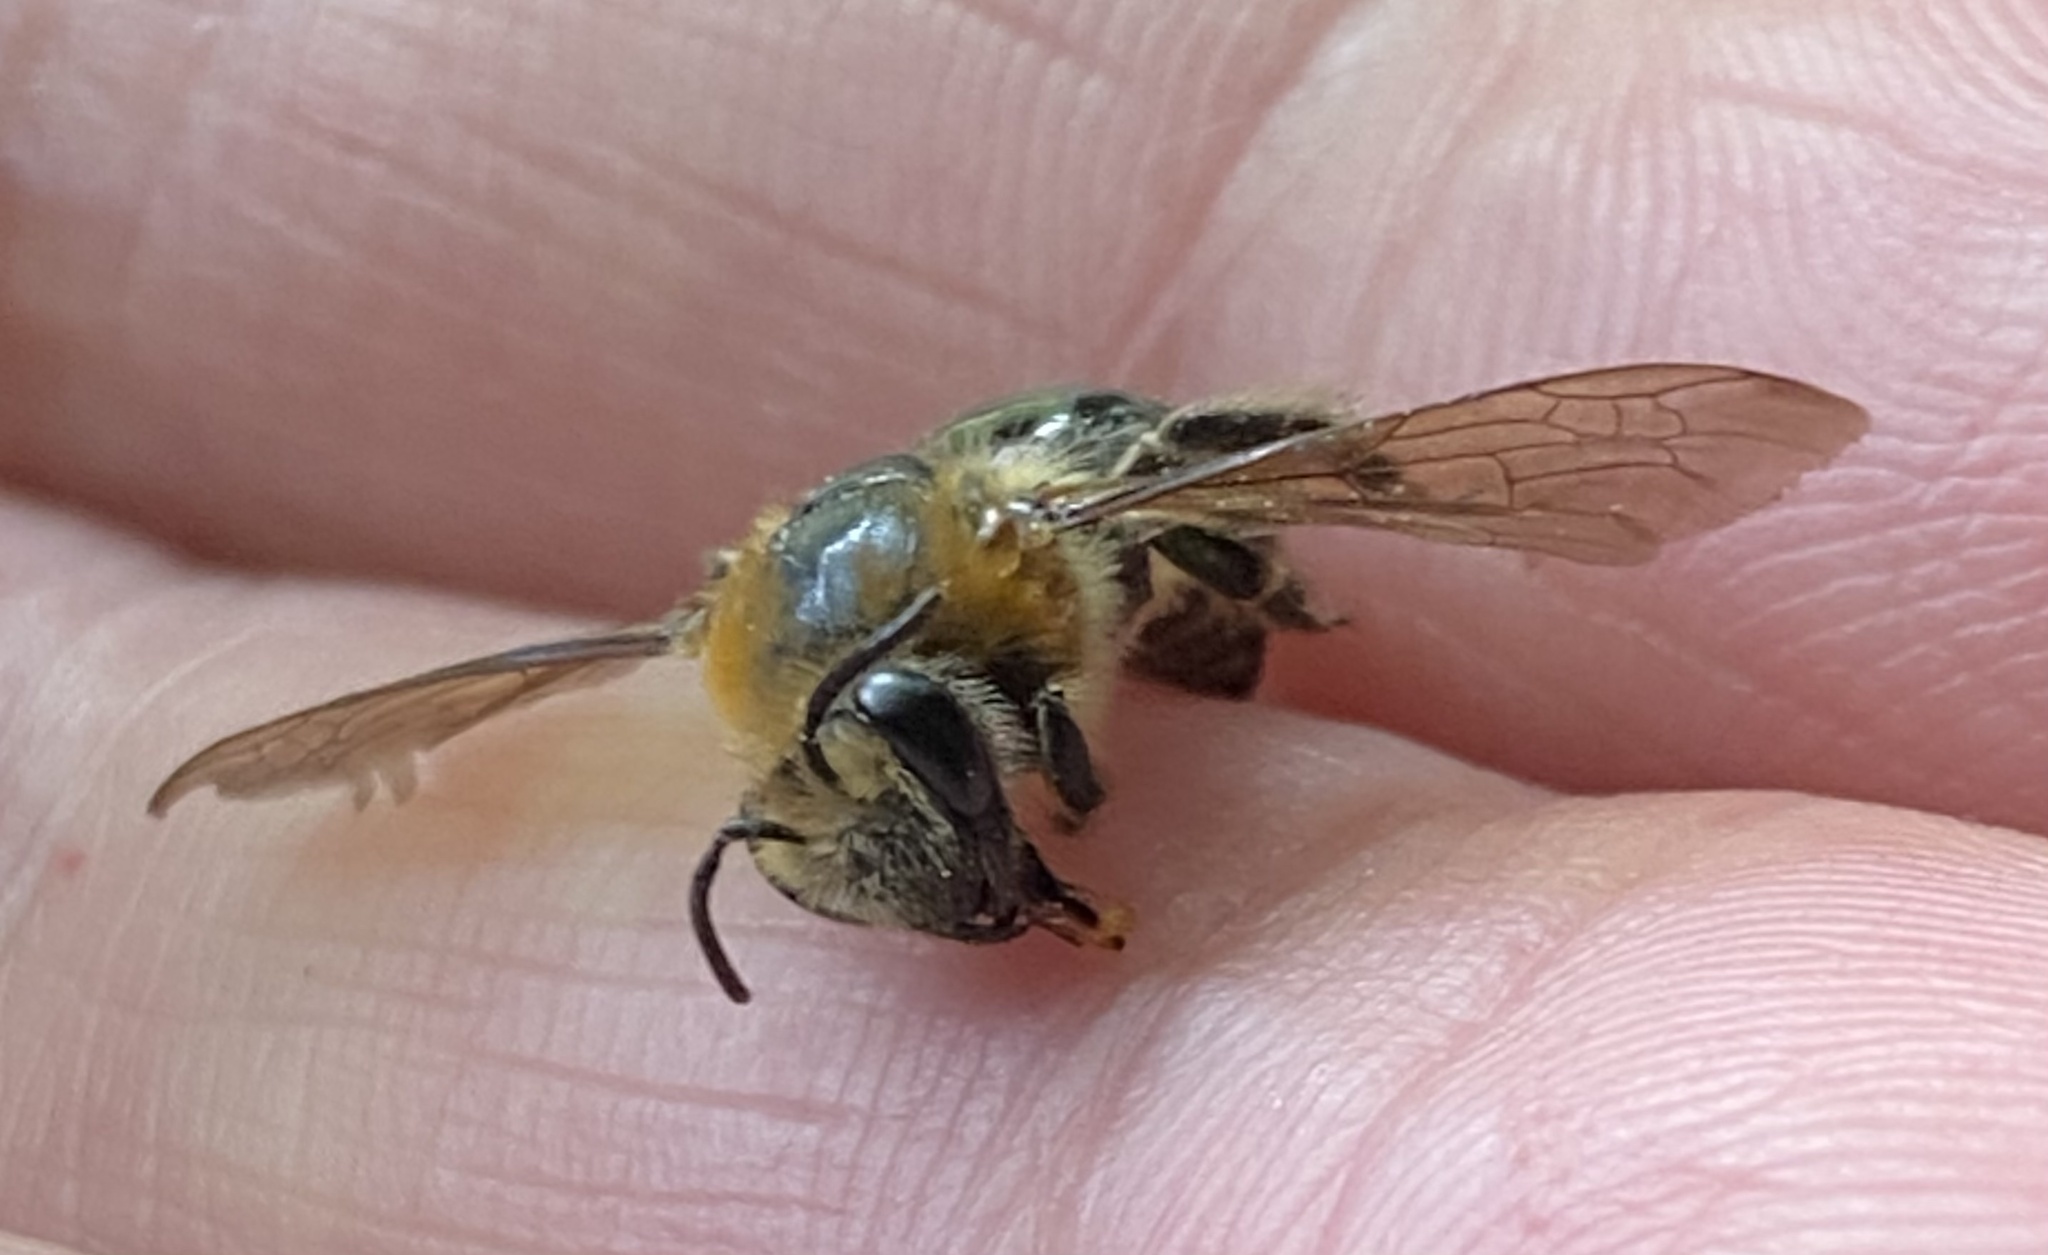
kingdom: Animalia
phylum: Arthropoda
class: Insecta
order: Hymenoptera
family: Colletidae
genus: Colletes
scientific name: Colletes thoracicus
